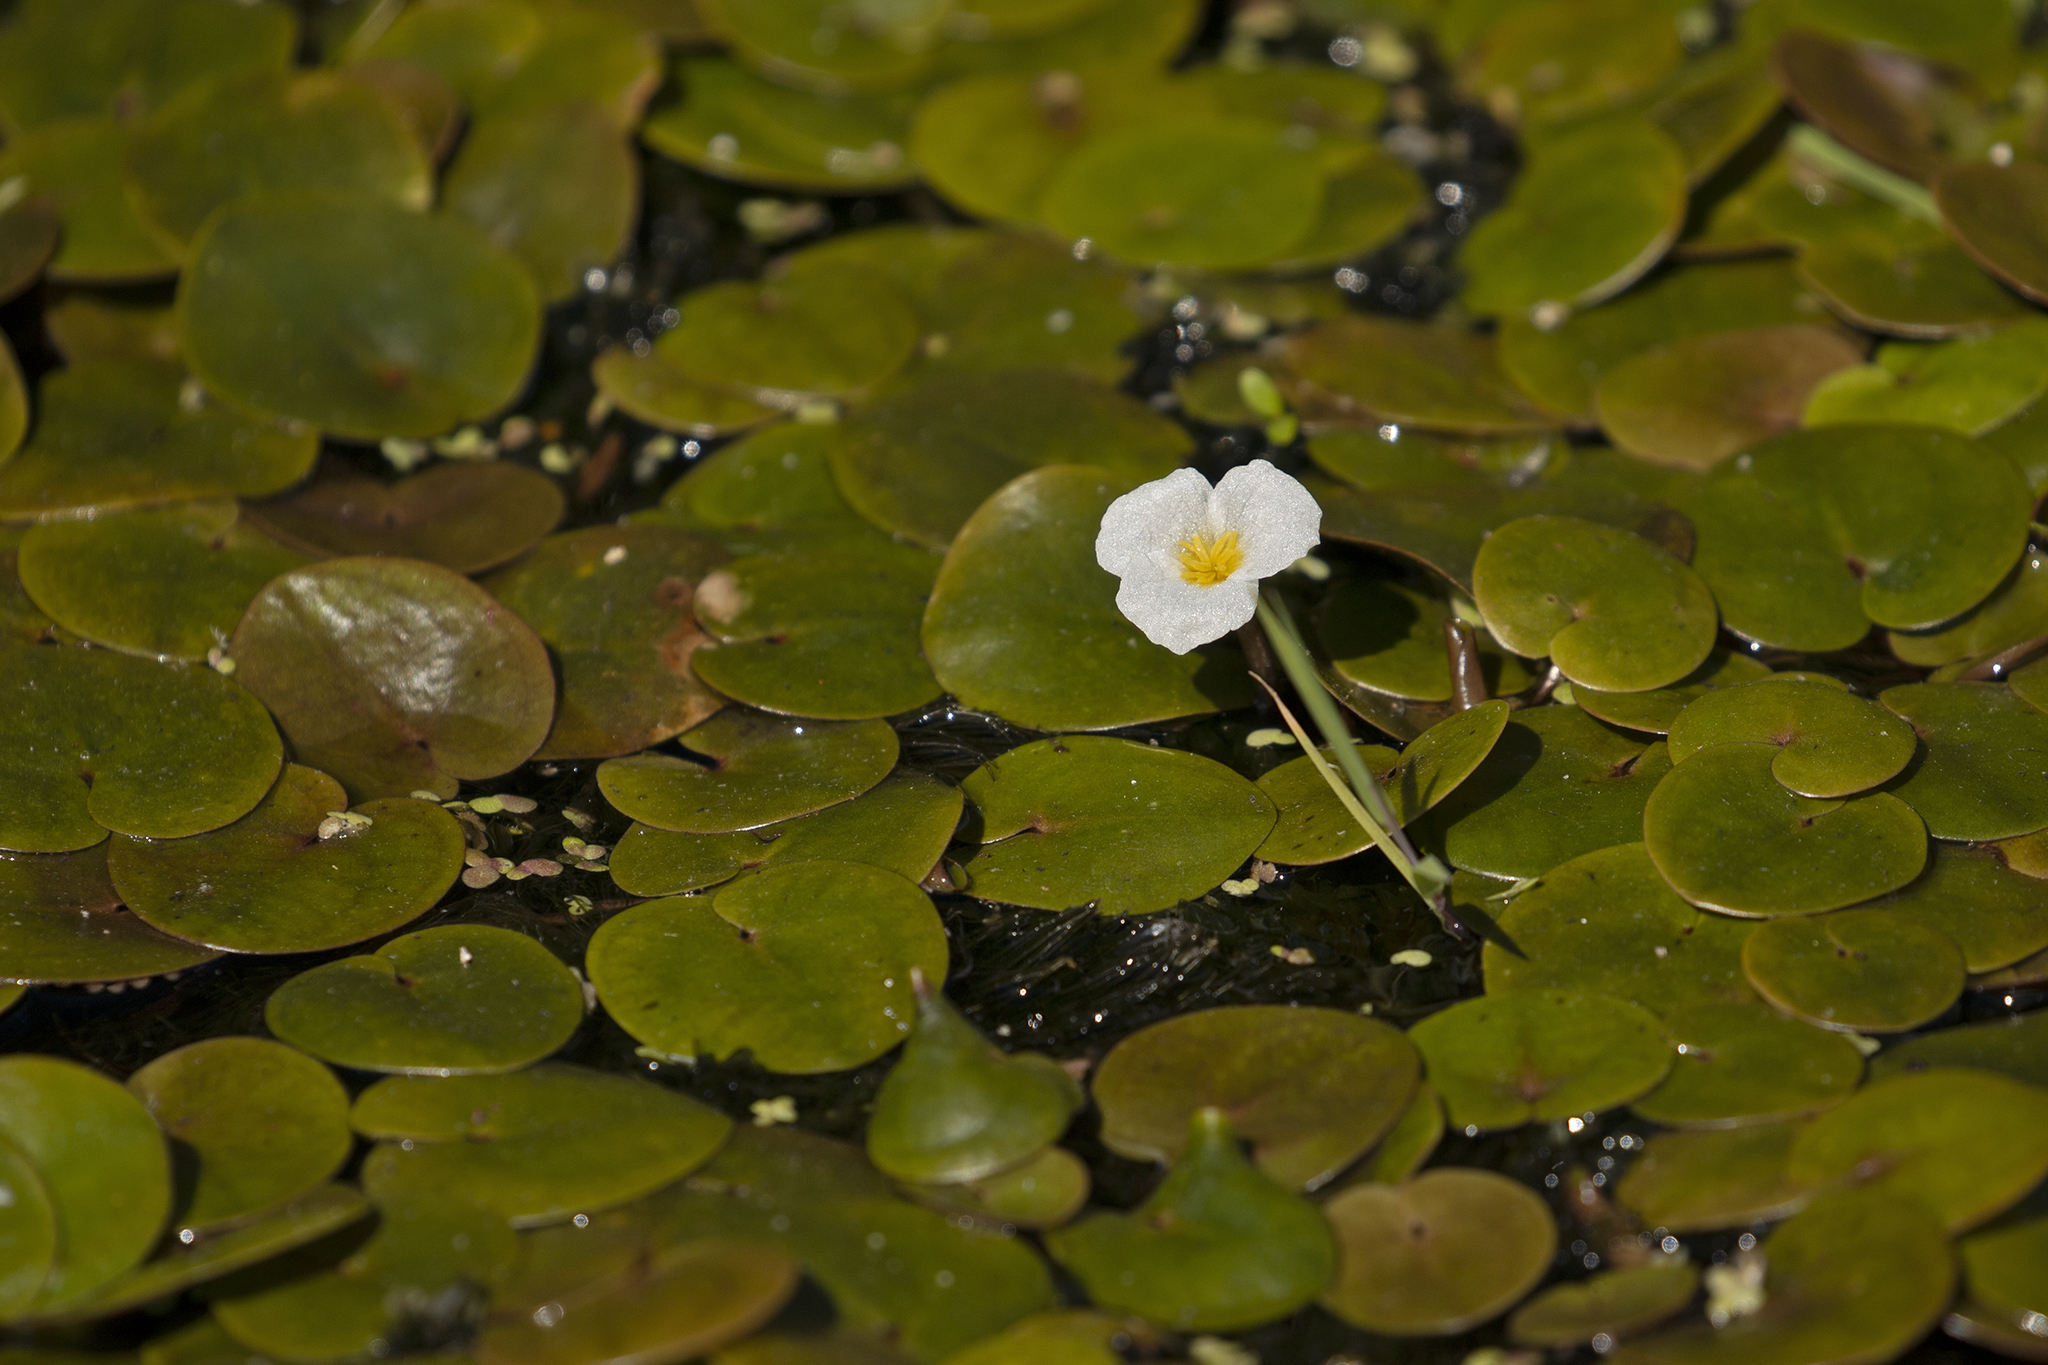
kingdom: Plantae
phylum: Tracheophyta
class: Liliopsida
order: Alismatales
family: Hydrocharitaceae
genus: Hydrocharis
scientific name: Hydrocharis morsus-ranae
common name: Frogbit
